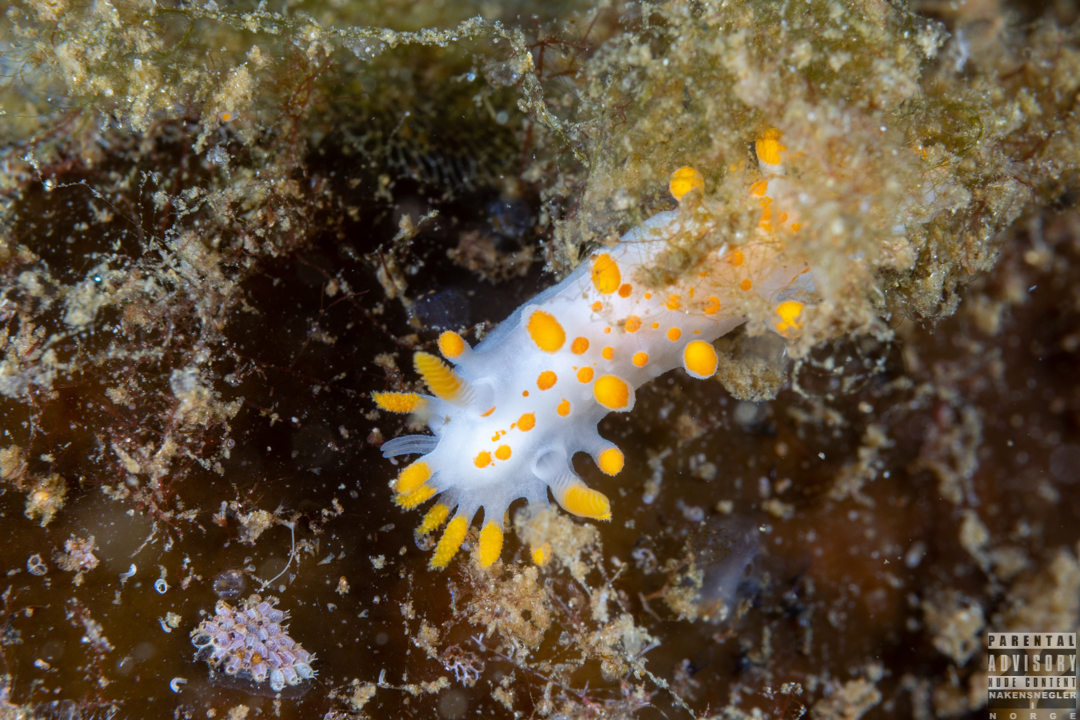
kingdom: Animalia
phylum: Mollusca
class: Gastropoda
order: Nudibranchia
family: Polyceridae
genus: Limacia
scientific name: Limacia clavigera
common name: Orange-clubbed sea slug
